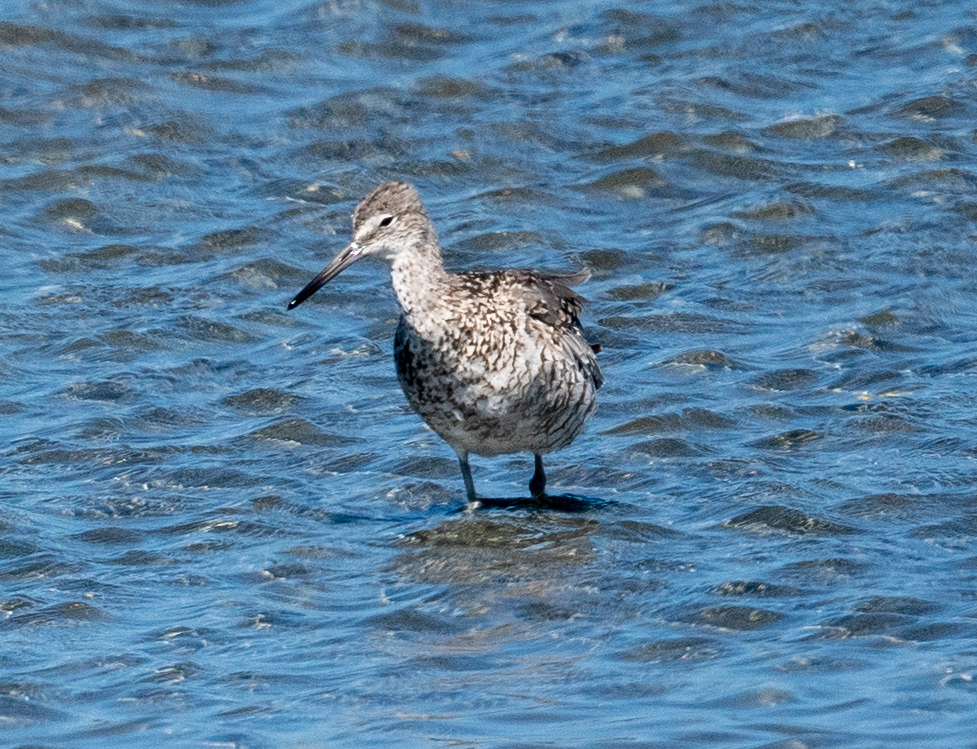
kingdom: Animalia
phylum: Chordata
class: Aves
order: Charadriiformes
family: Scolopacidae
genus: Tringa
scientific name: Tringa semipalmata
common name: Willet
